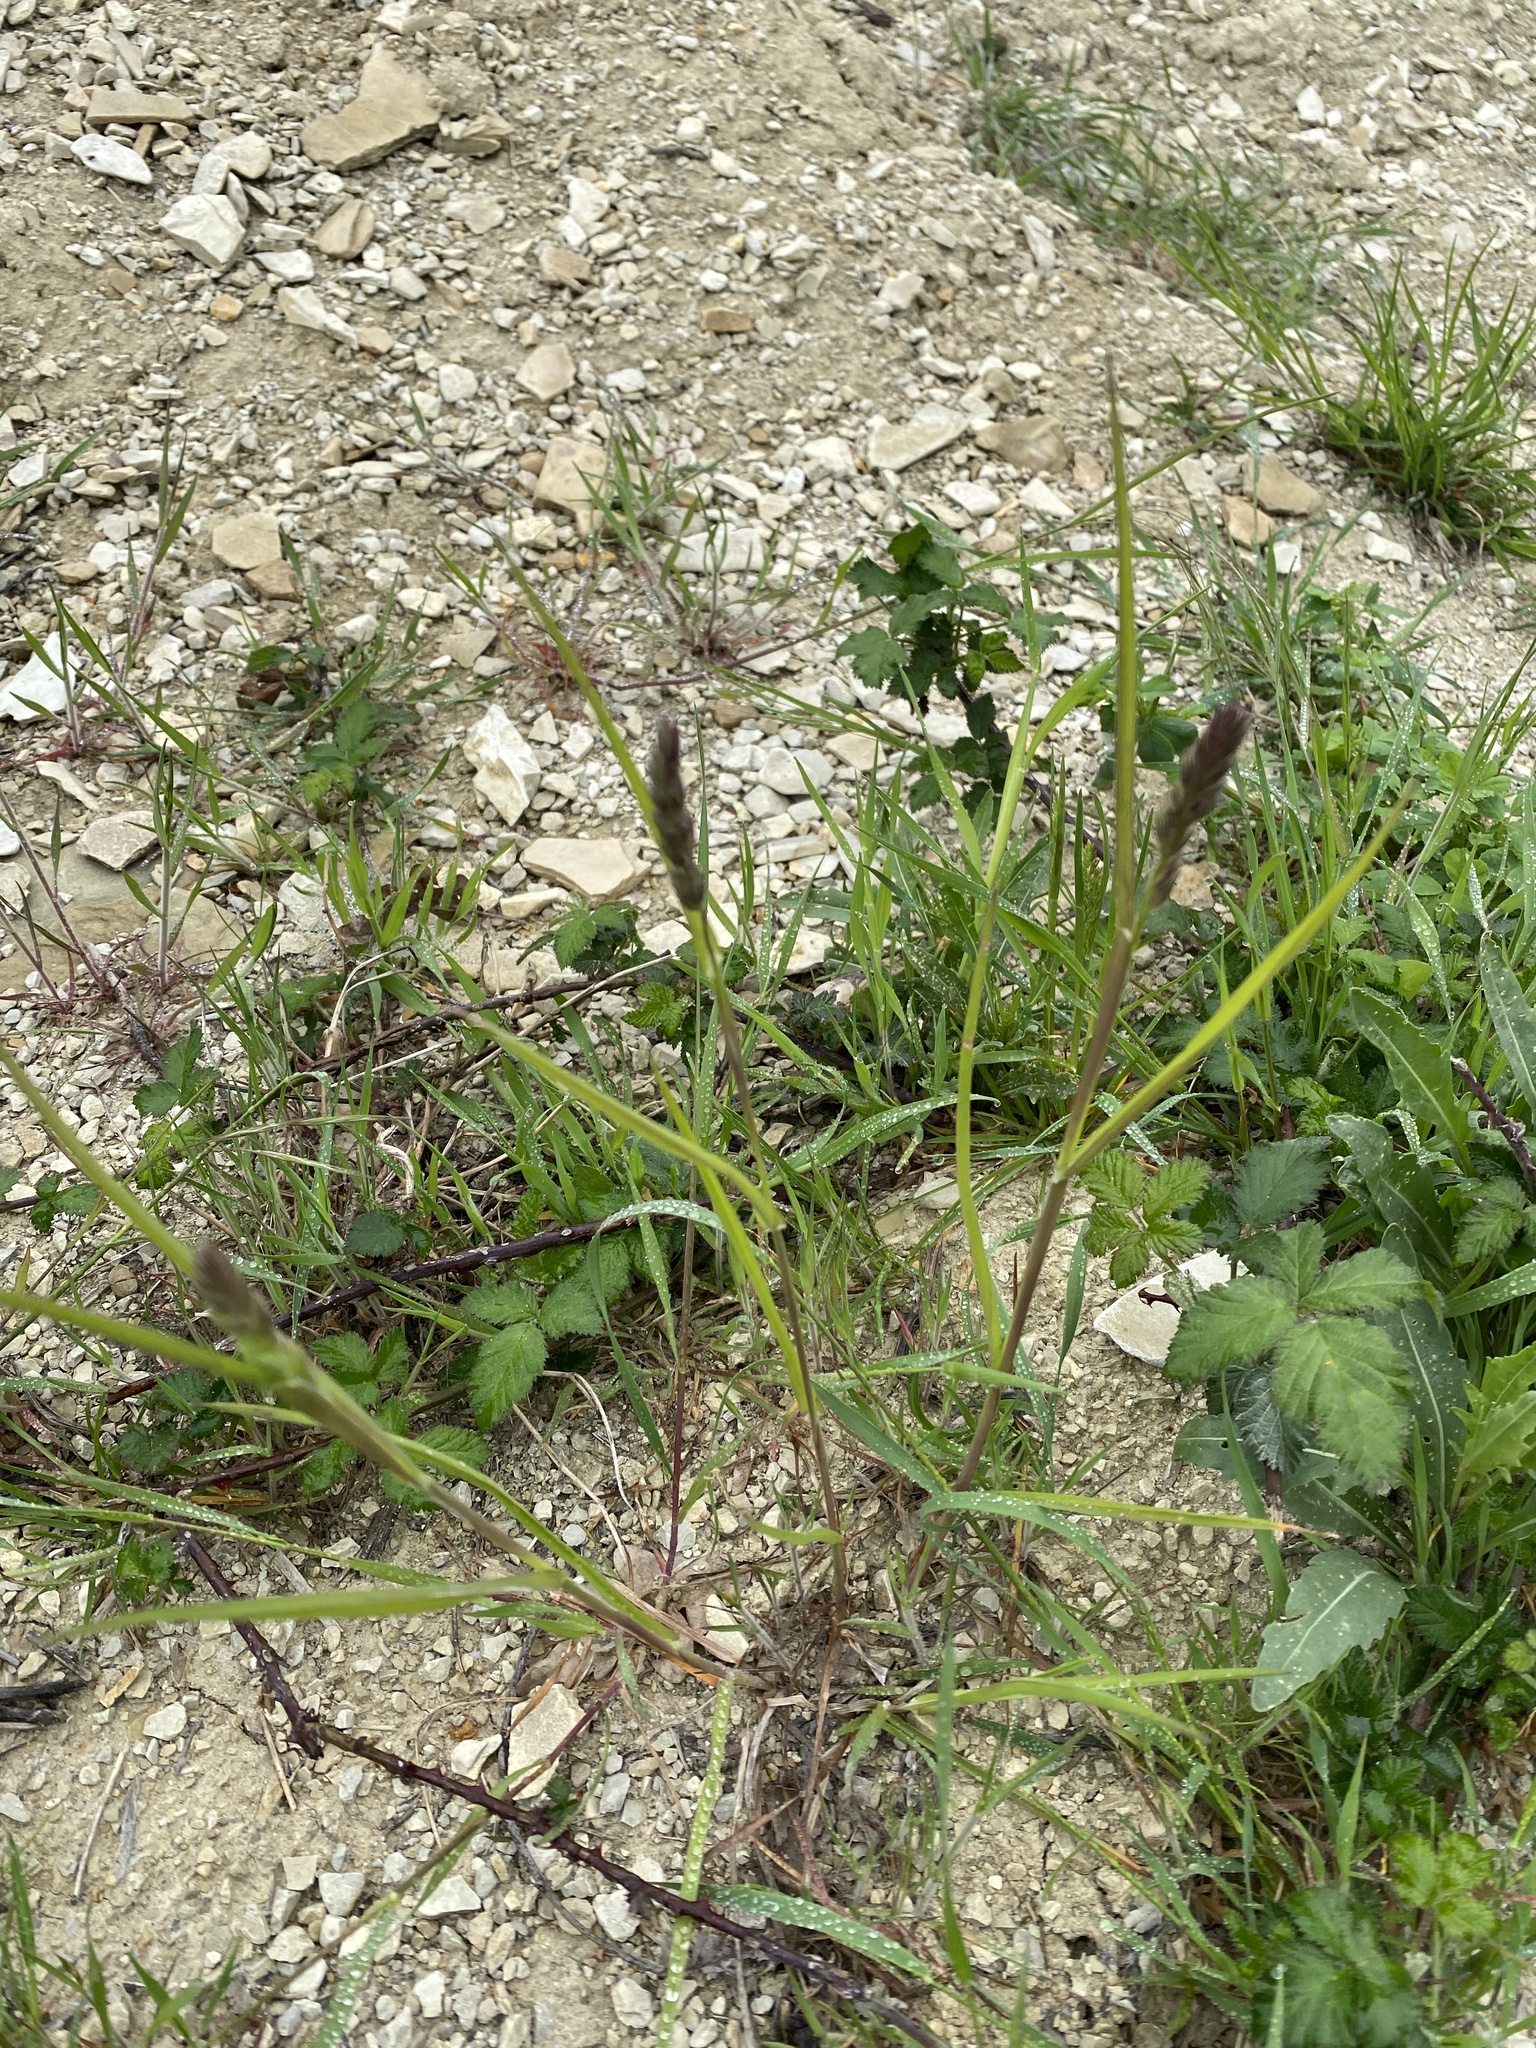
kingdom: Plantae
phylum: Tracheophyta
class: Liliopsida
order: Poales
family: Poaceae
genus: Dactylis
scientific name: Dactylis glomerata
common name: Orchardgrass
